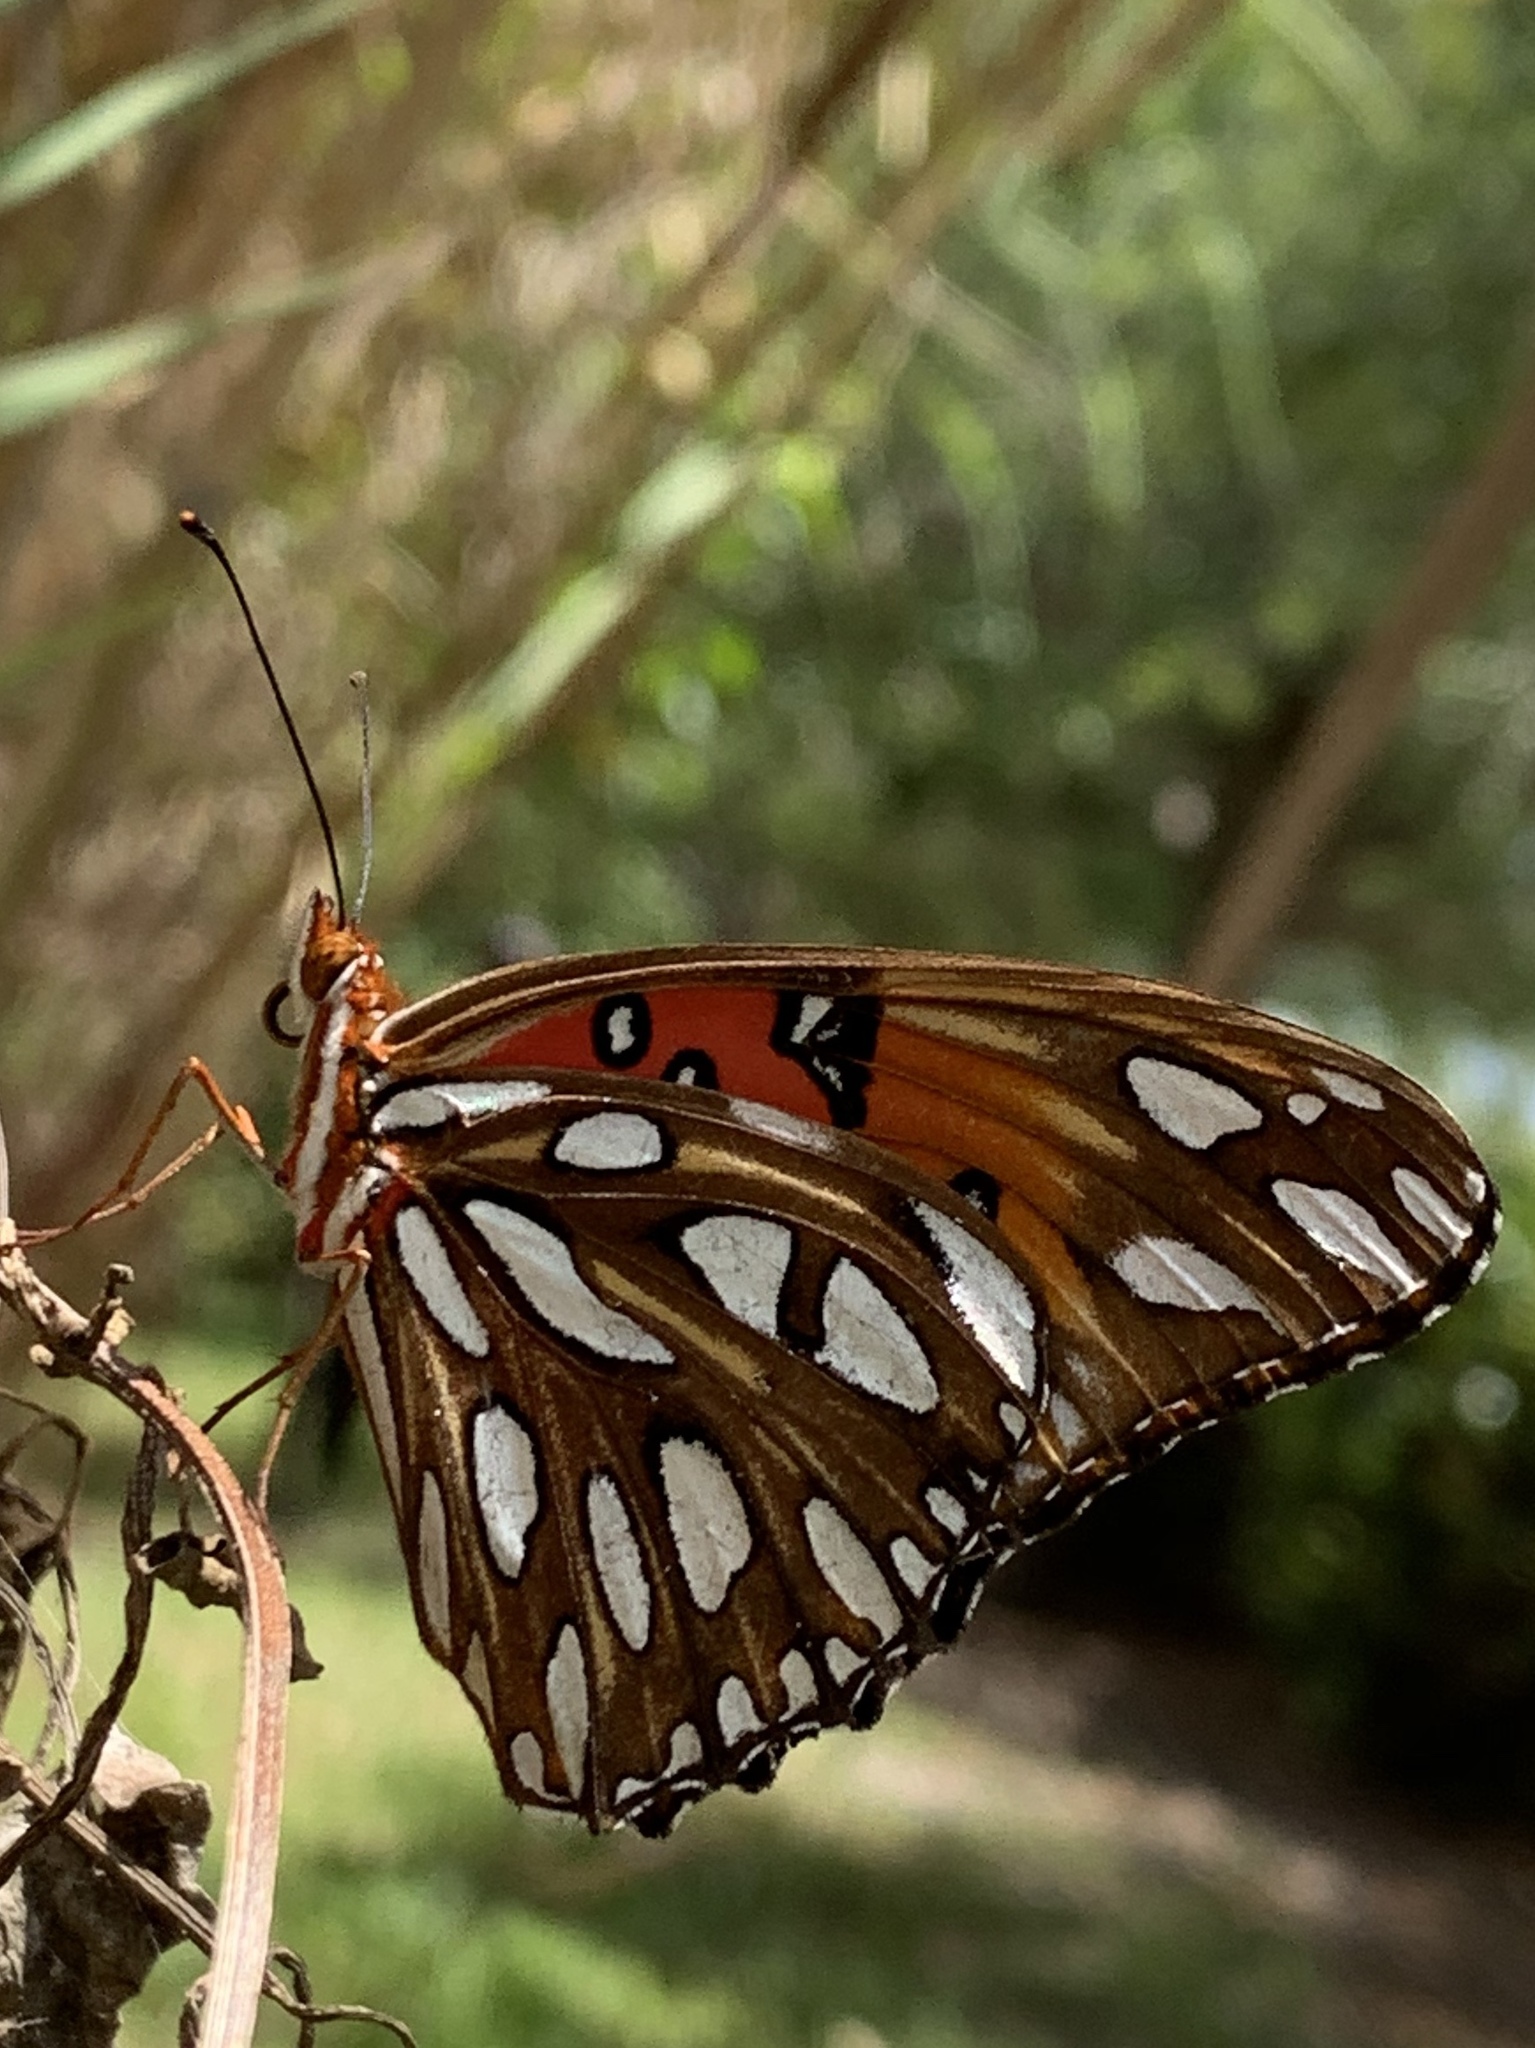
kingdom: Animalia
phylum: Arthropoda
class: Insecta
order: Lepidoptera
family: Nymphalidae
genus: Dione
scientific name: Dione vanillae
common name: Gulf fritillary
